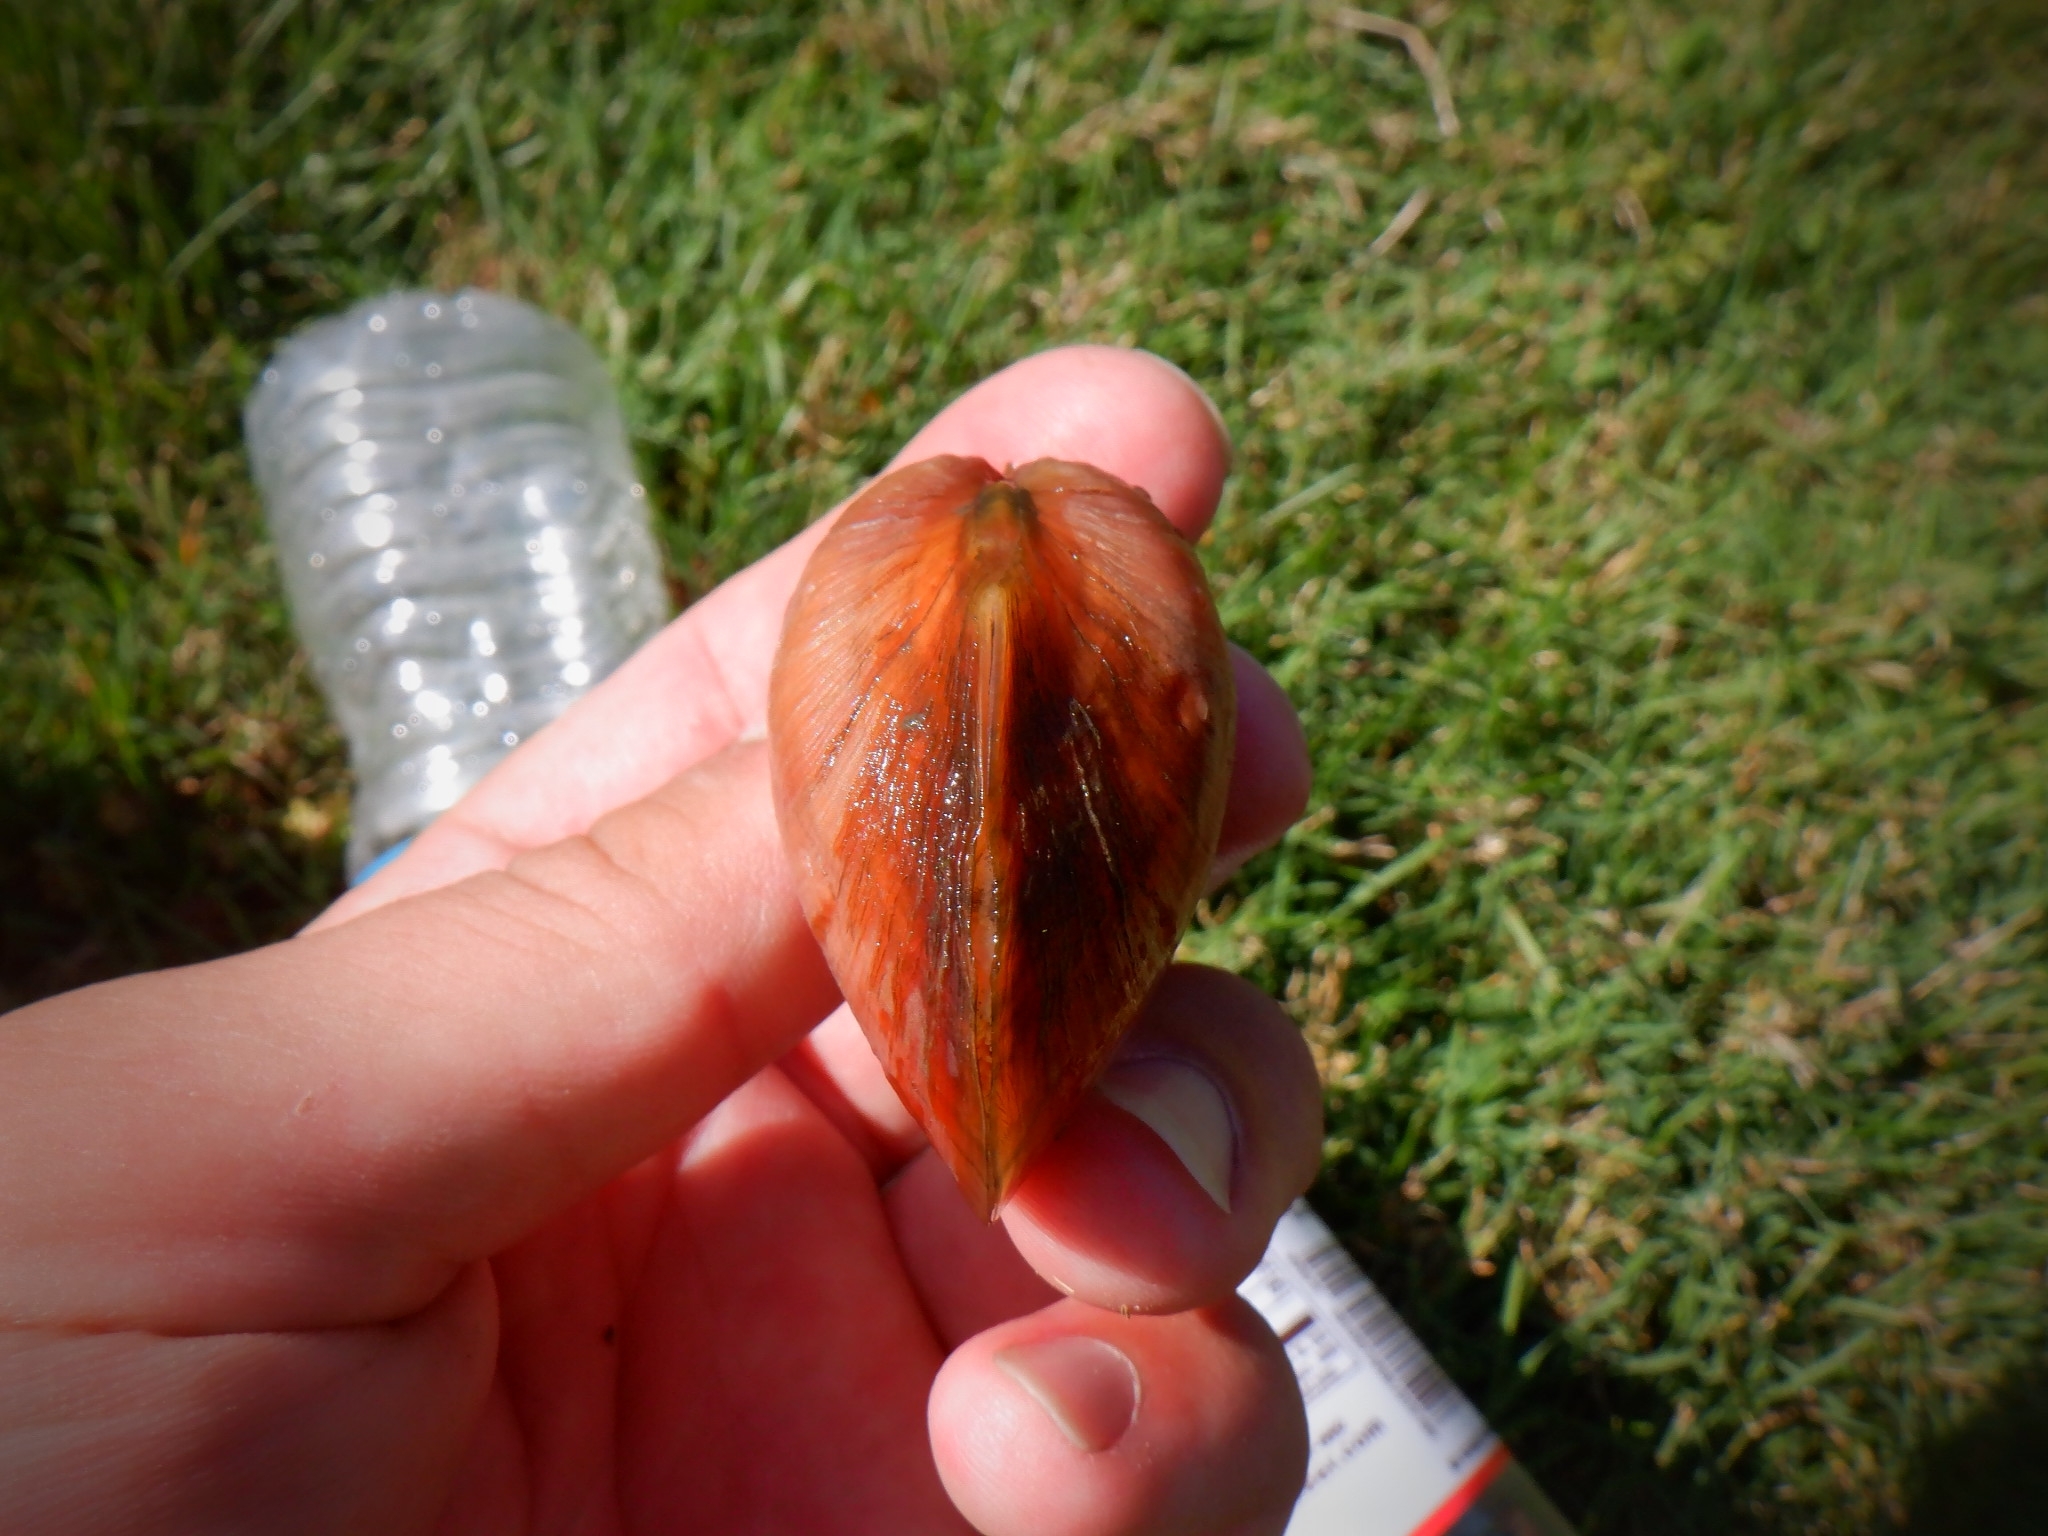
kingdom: Animalia
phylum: Mollusca
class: Bivalvia
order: Unionida
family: Unionidae
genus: Lampsilis
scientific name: Lampsilis cardium
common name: Plain pocketbook
